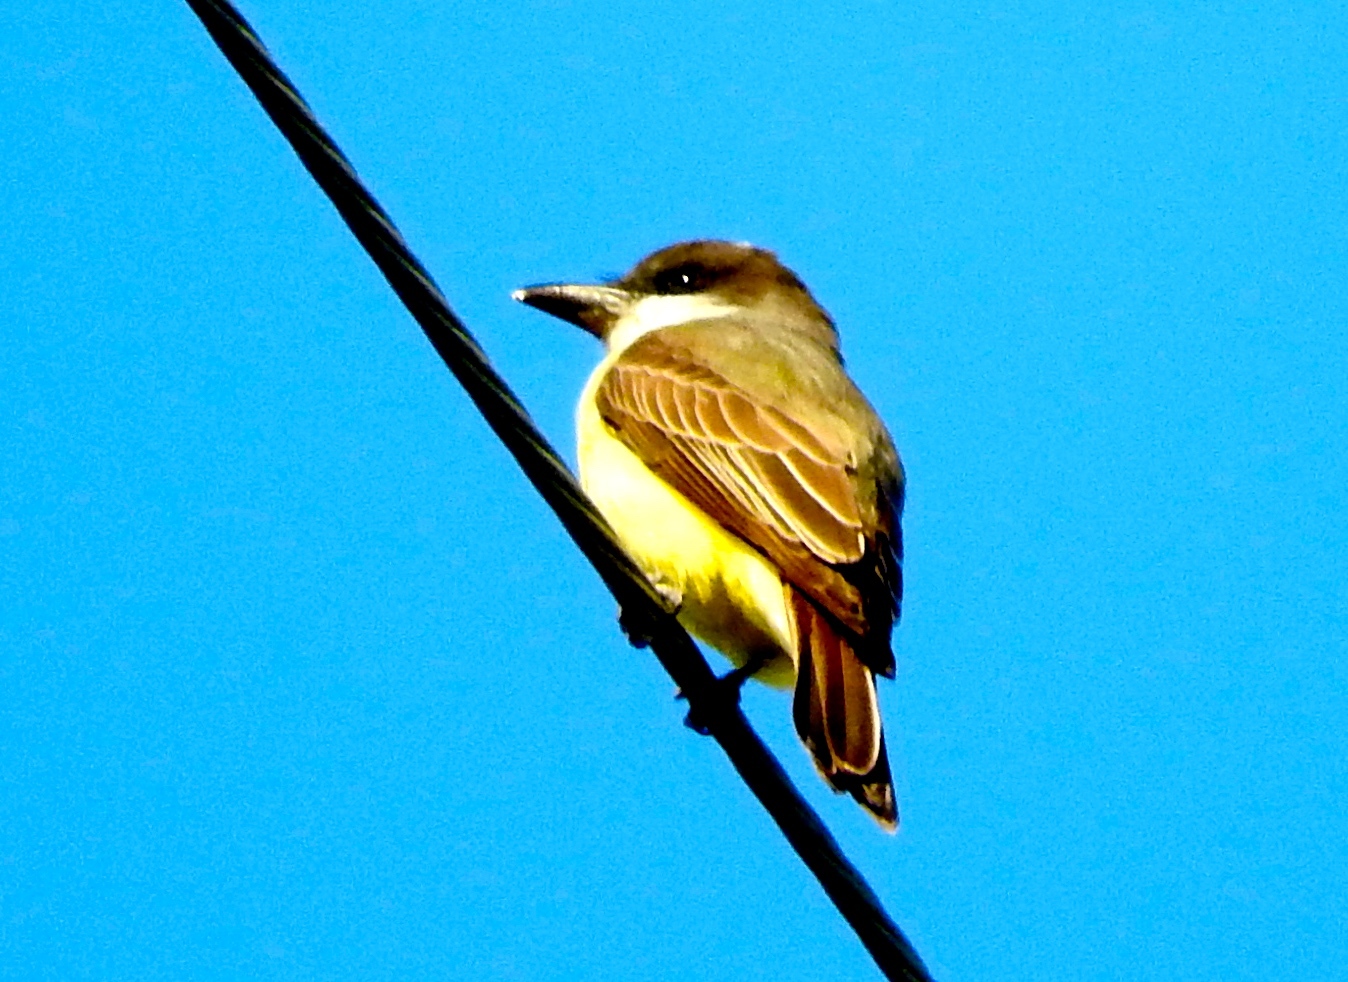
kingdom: Animalia
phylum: Chordata
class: Aves
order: Passeriformes
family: Tyrannidae
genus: Tyrannus
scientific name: Tyrannus crassirostris
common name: Thick-billed kingbird
